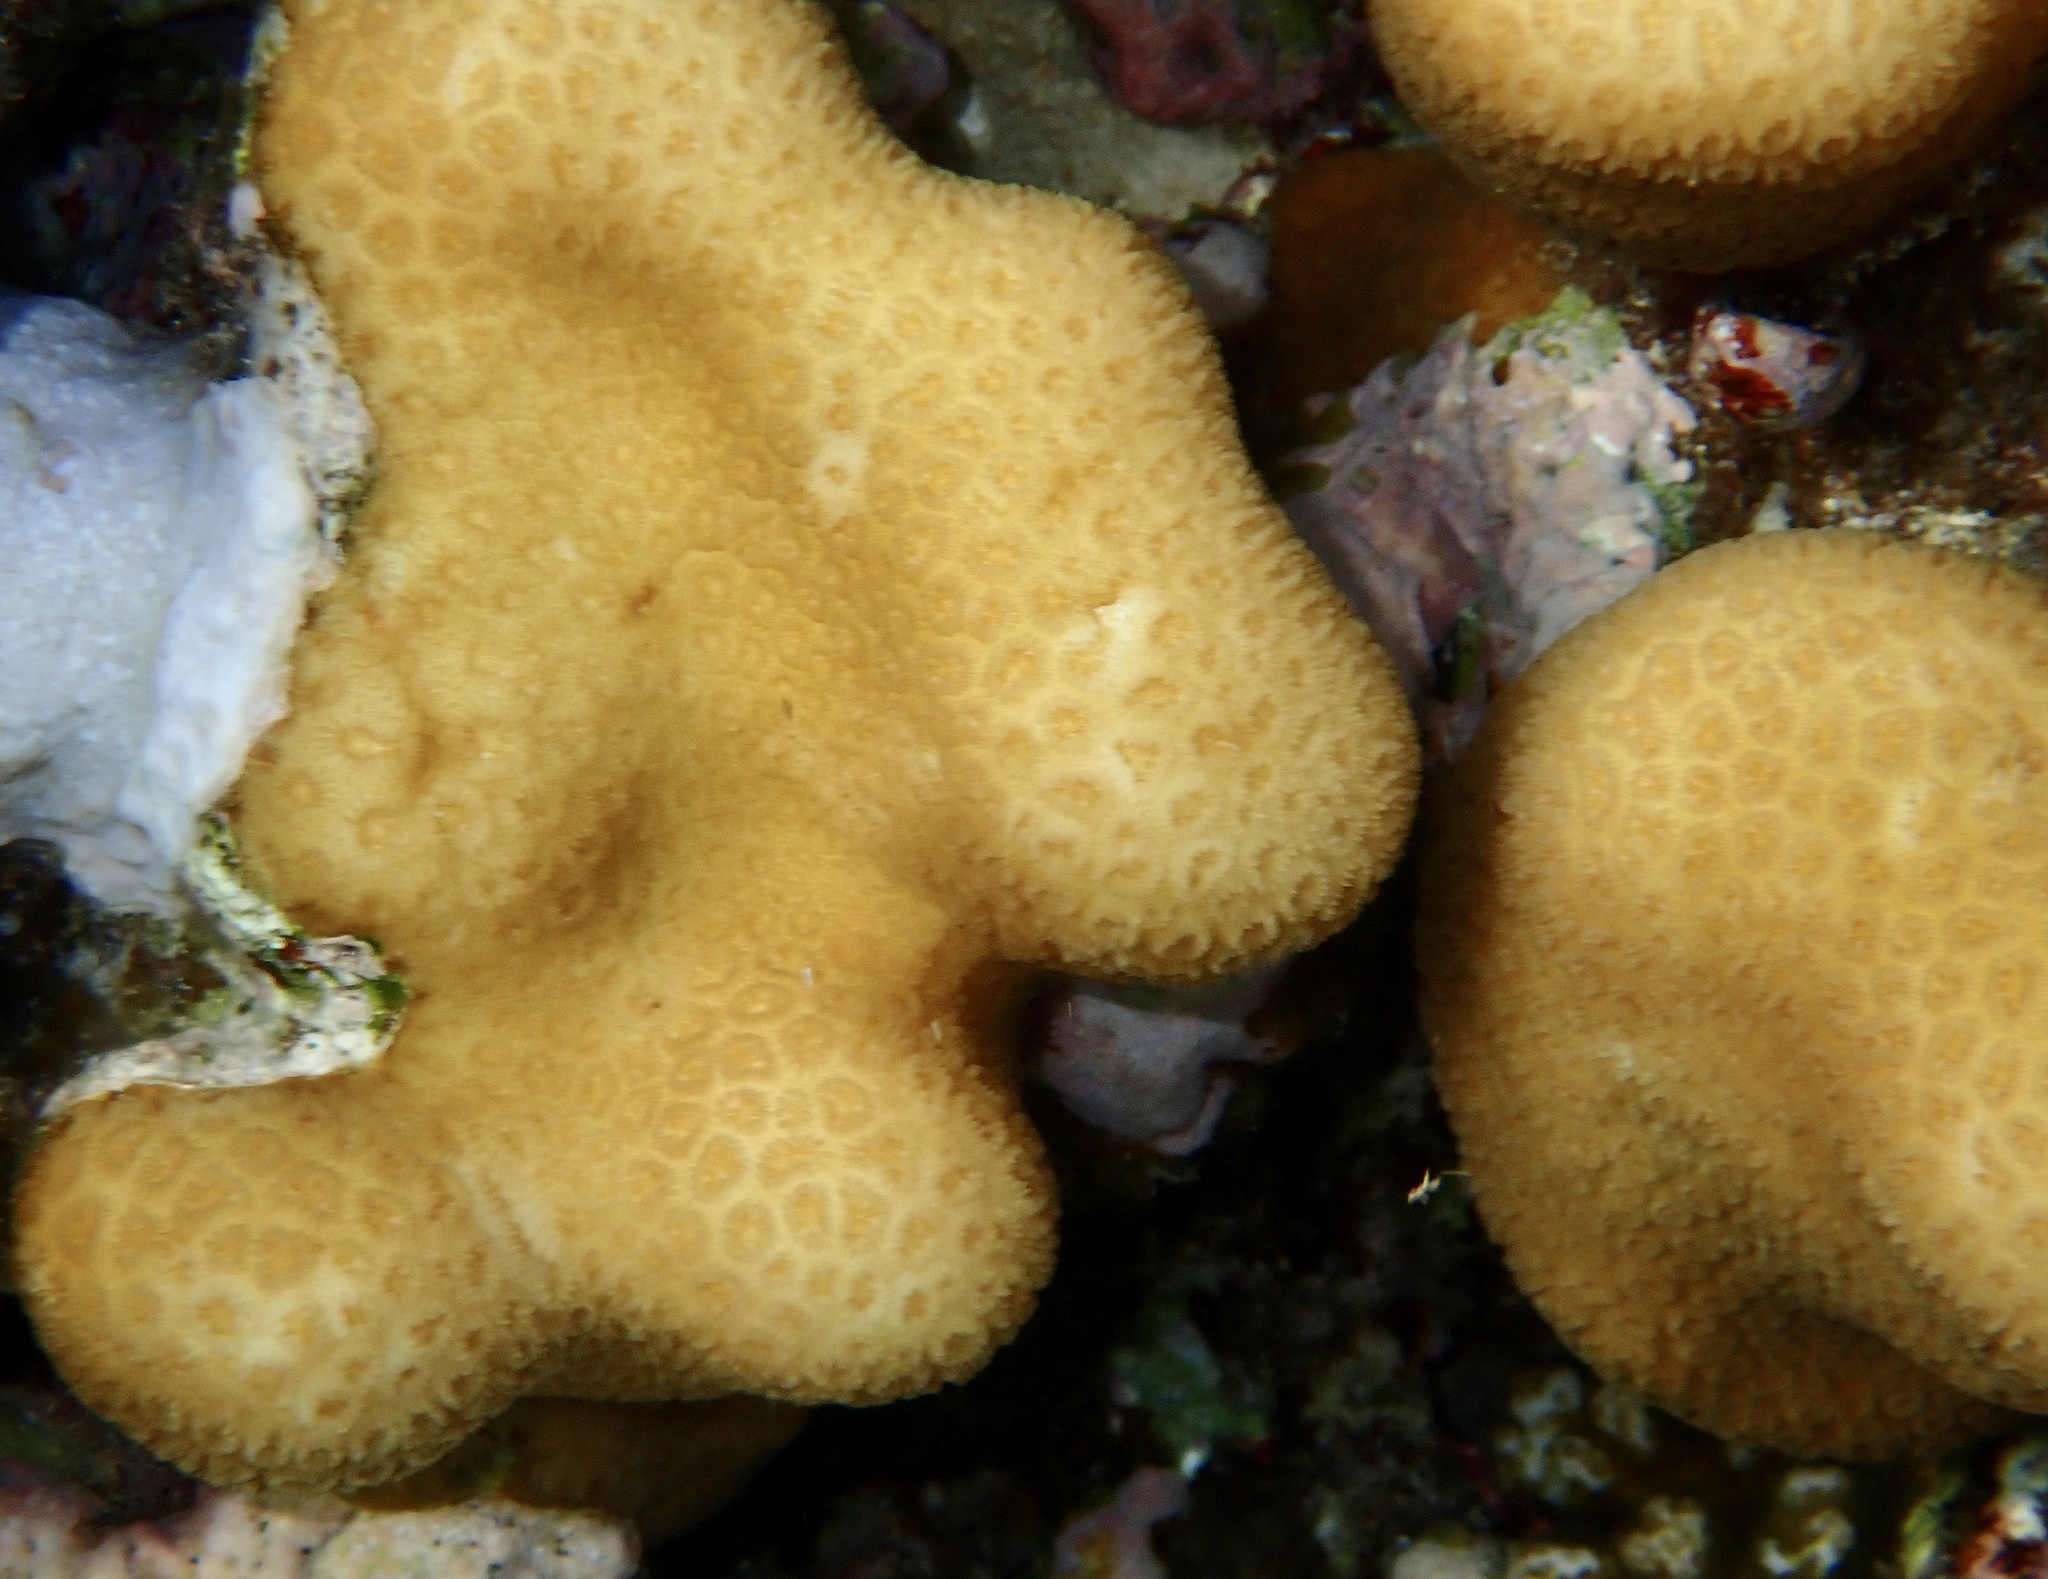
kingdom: Animalia
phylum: Cnidaria
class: Anthozoa
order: Scleractinia
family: Merulinidae
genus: Goniastrea
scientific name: Goniastrea stelligera
